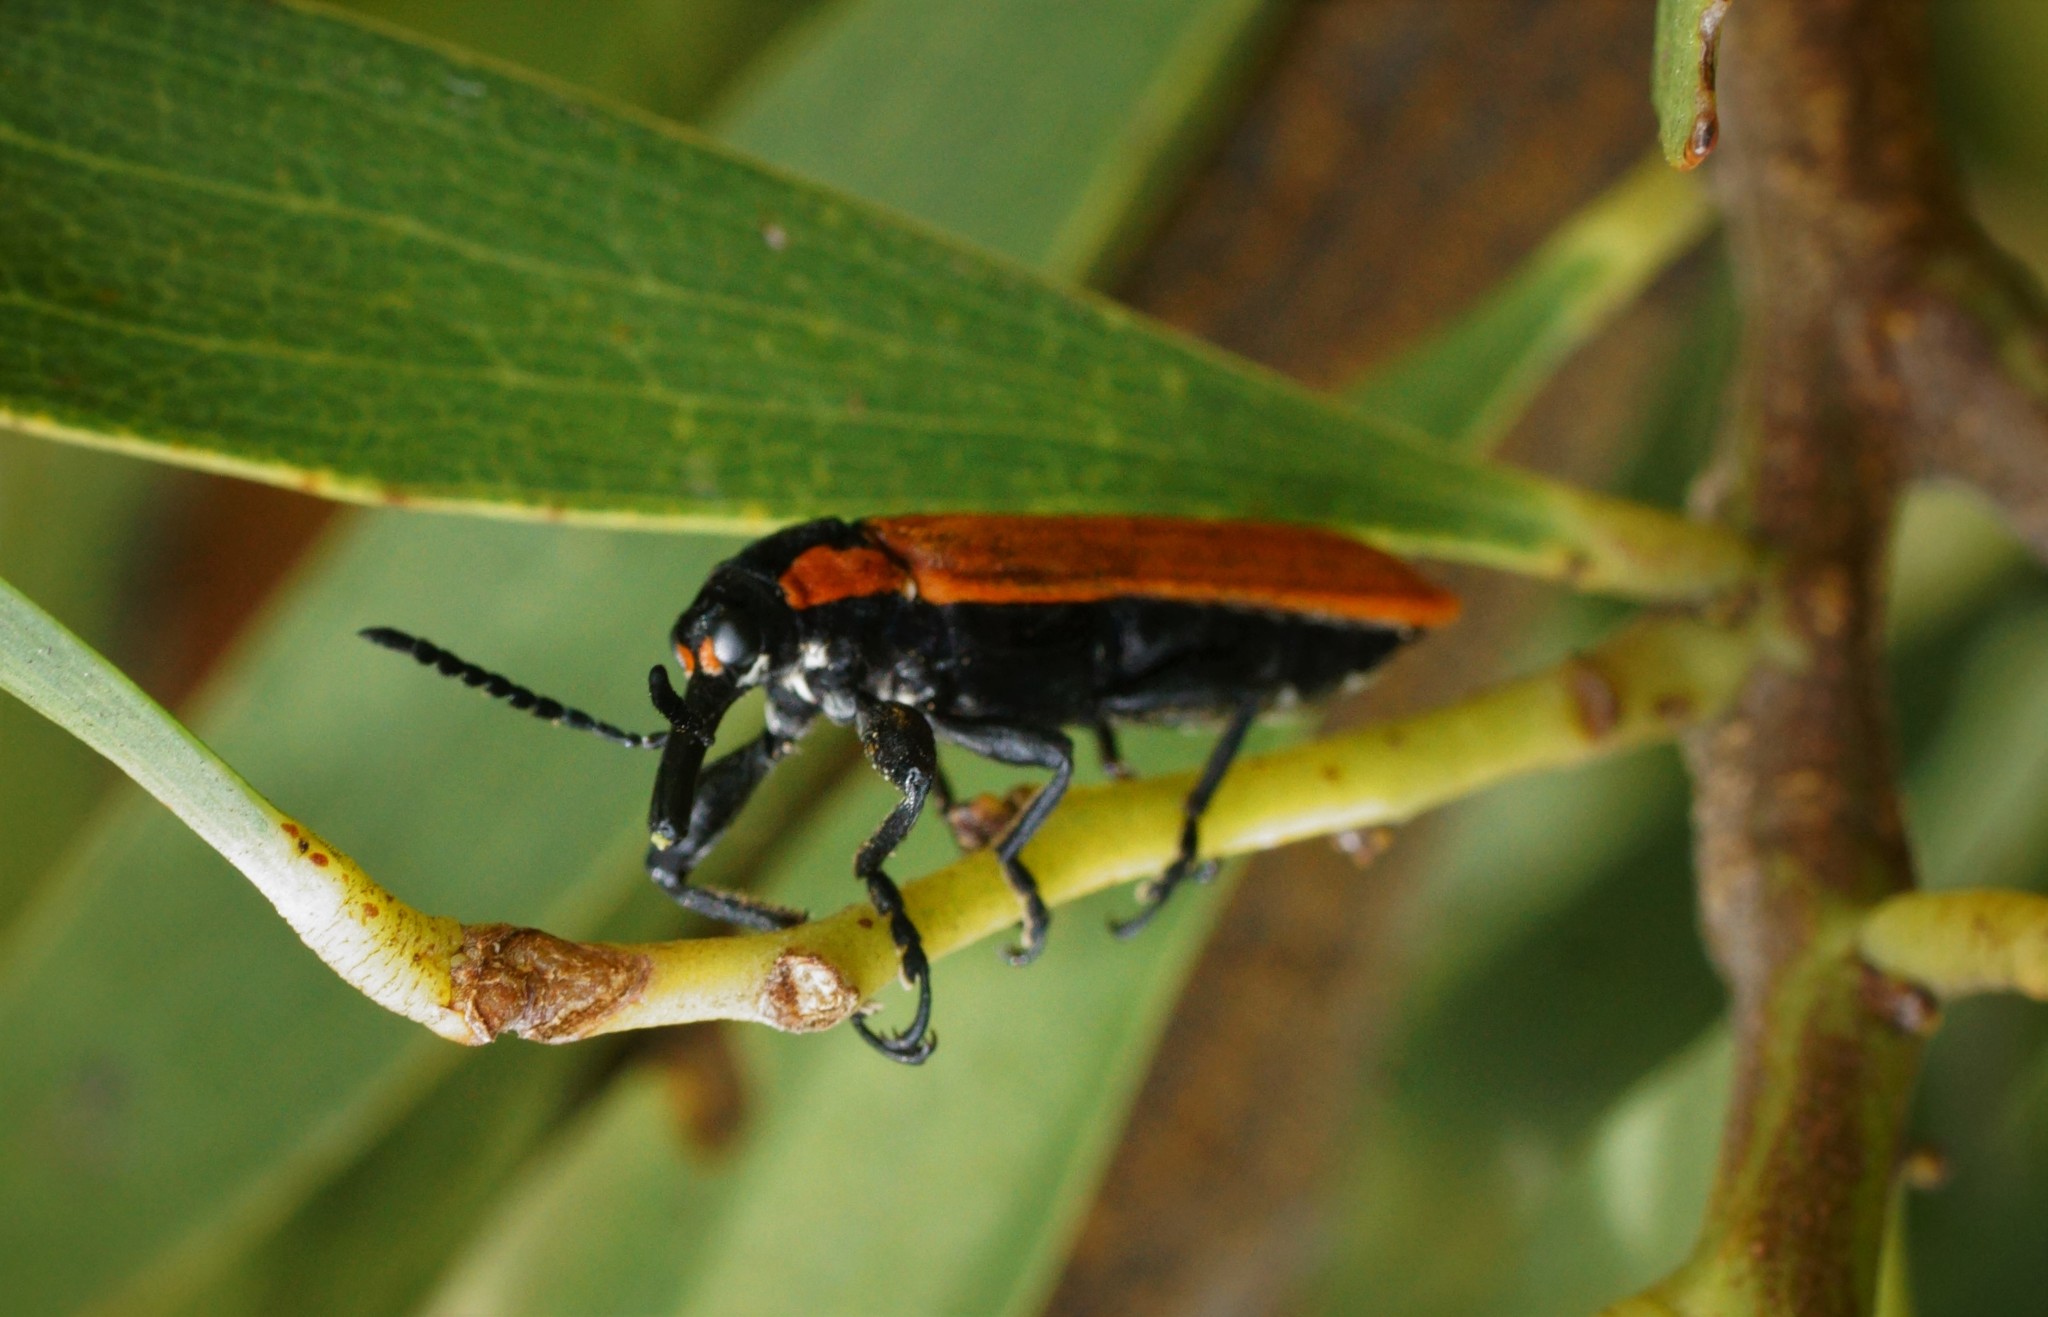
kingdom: Animalia
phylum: Arthropoda
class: Insecta
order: Coleoptera
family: Belidae
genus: Rhinotia
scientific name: Rhinotia haemoptera
